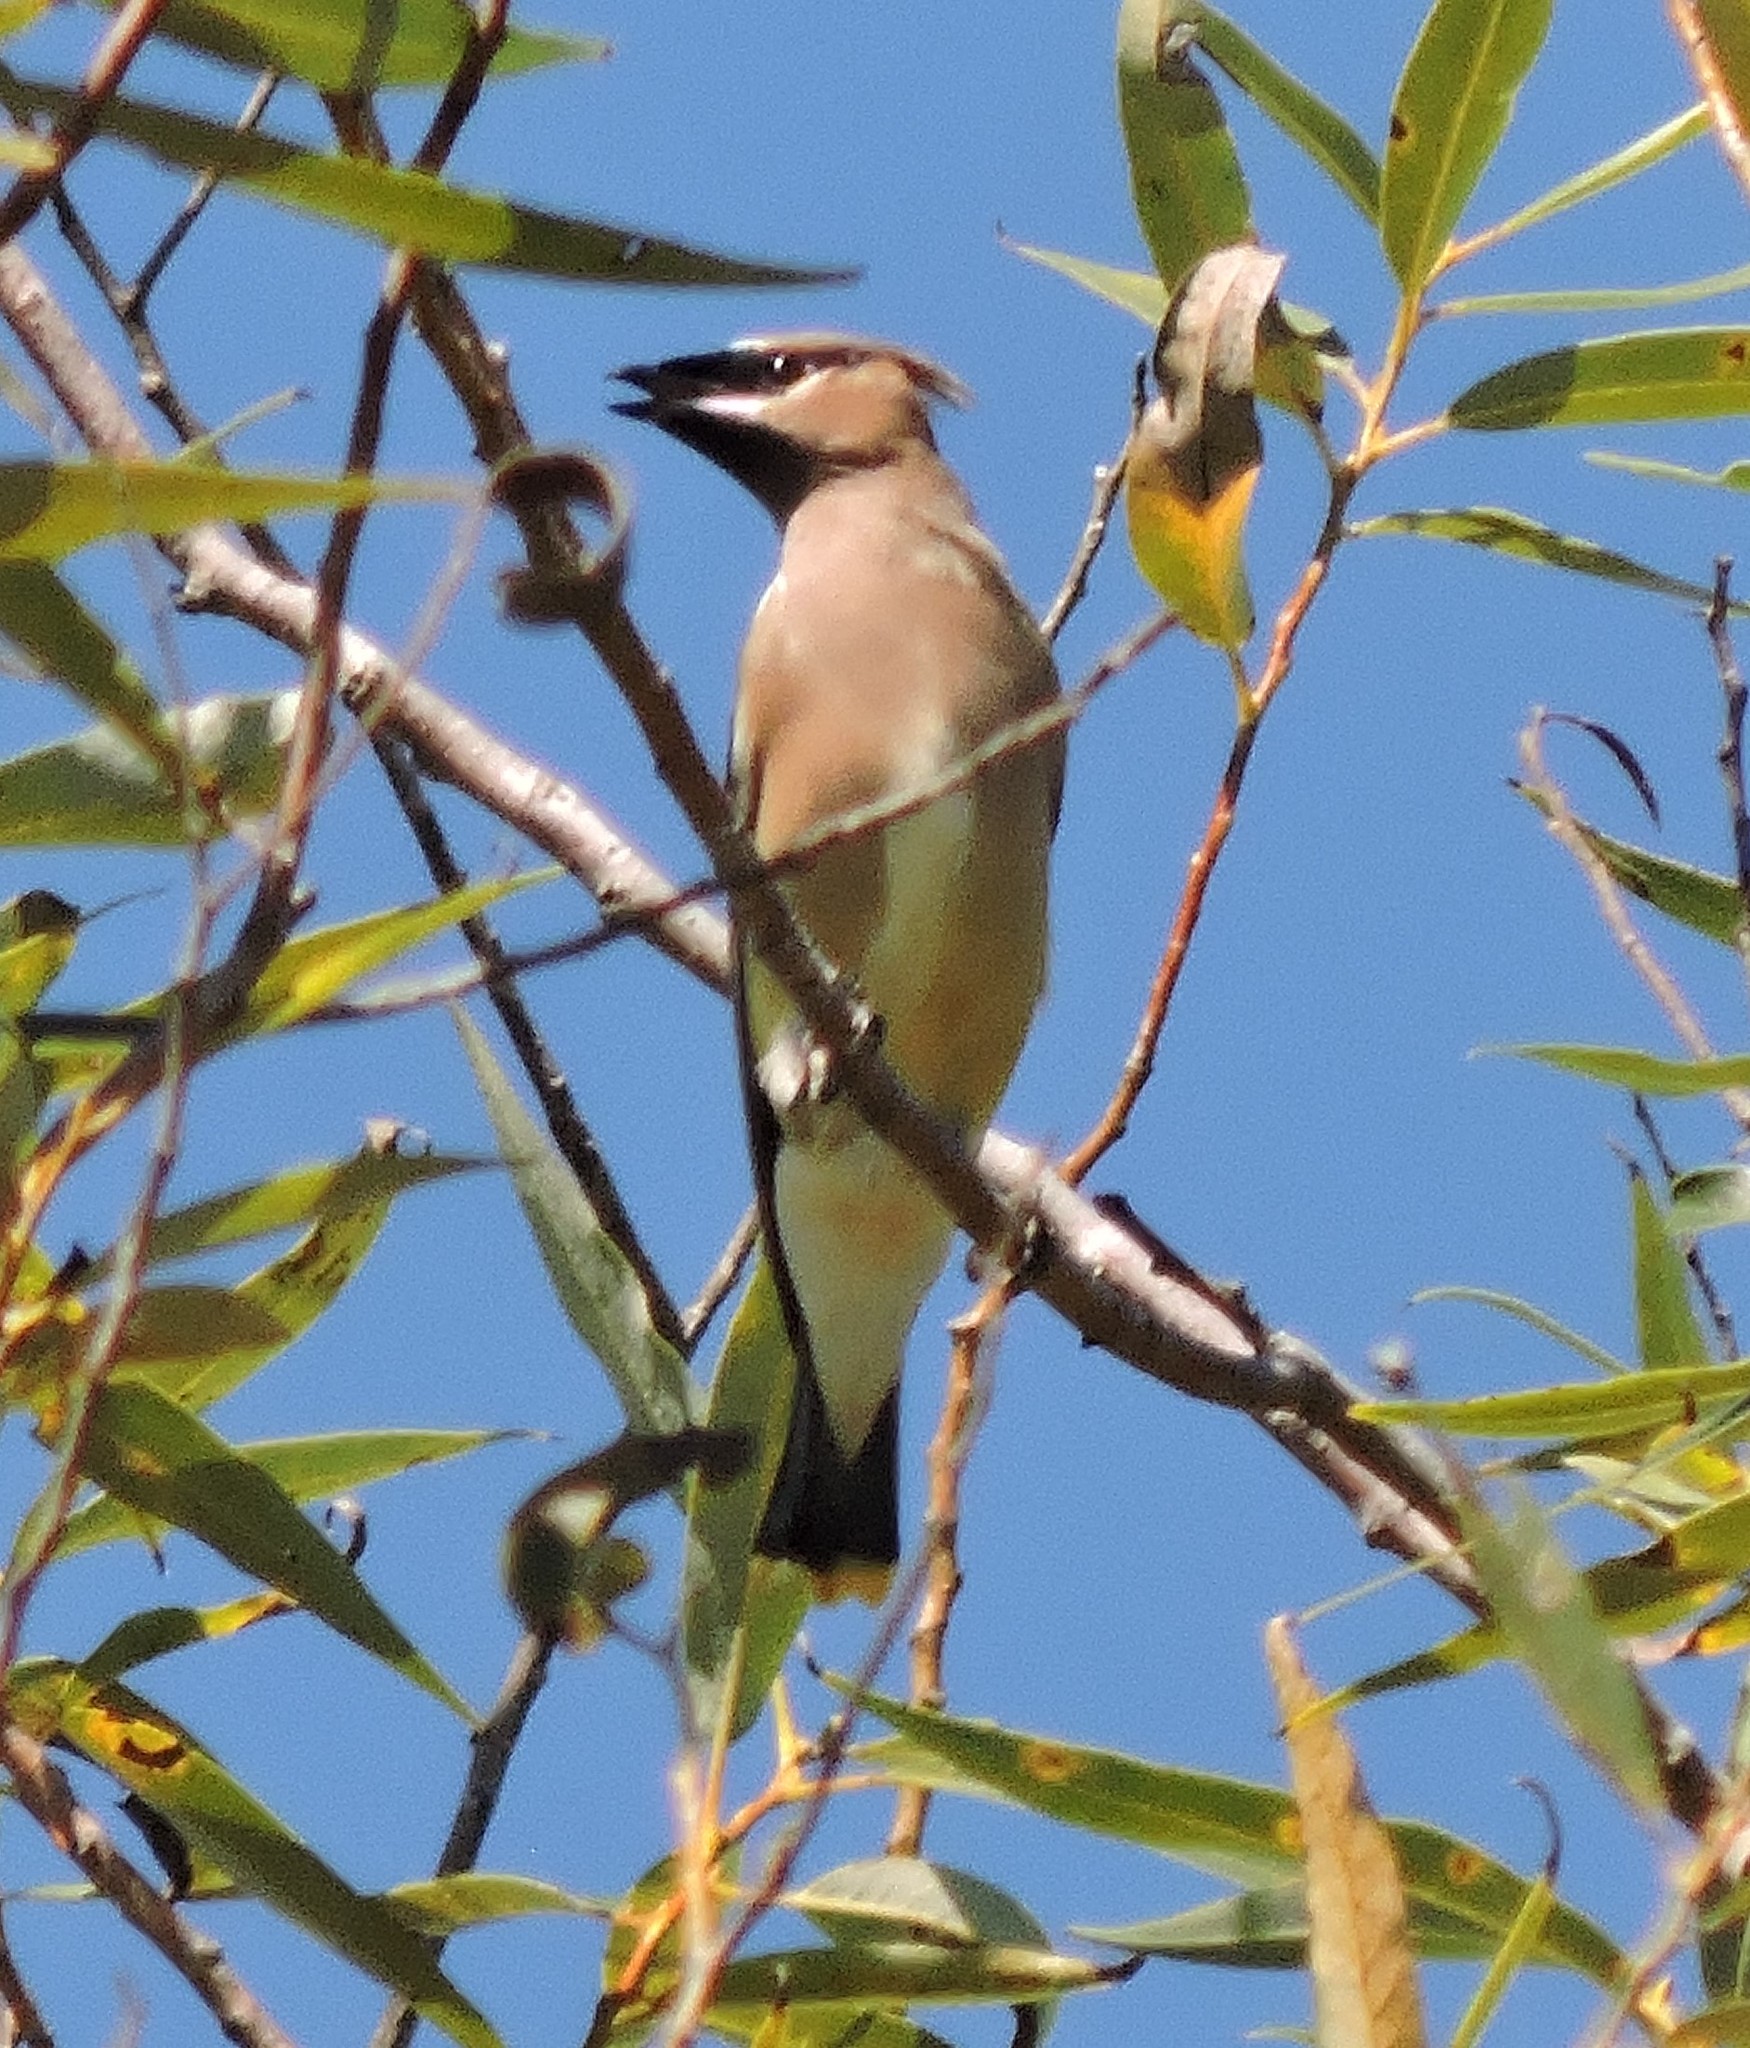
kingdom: Animalia
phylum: Chordata
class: Aves
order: Passeriformes
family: Bombycillidae
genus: Bombycilla
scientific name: Bombycilla cedrorum
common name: Cedar waxwing
